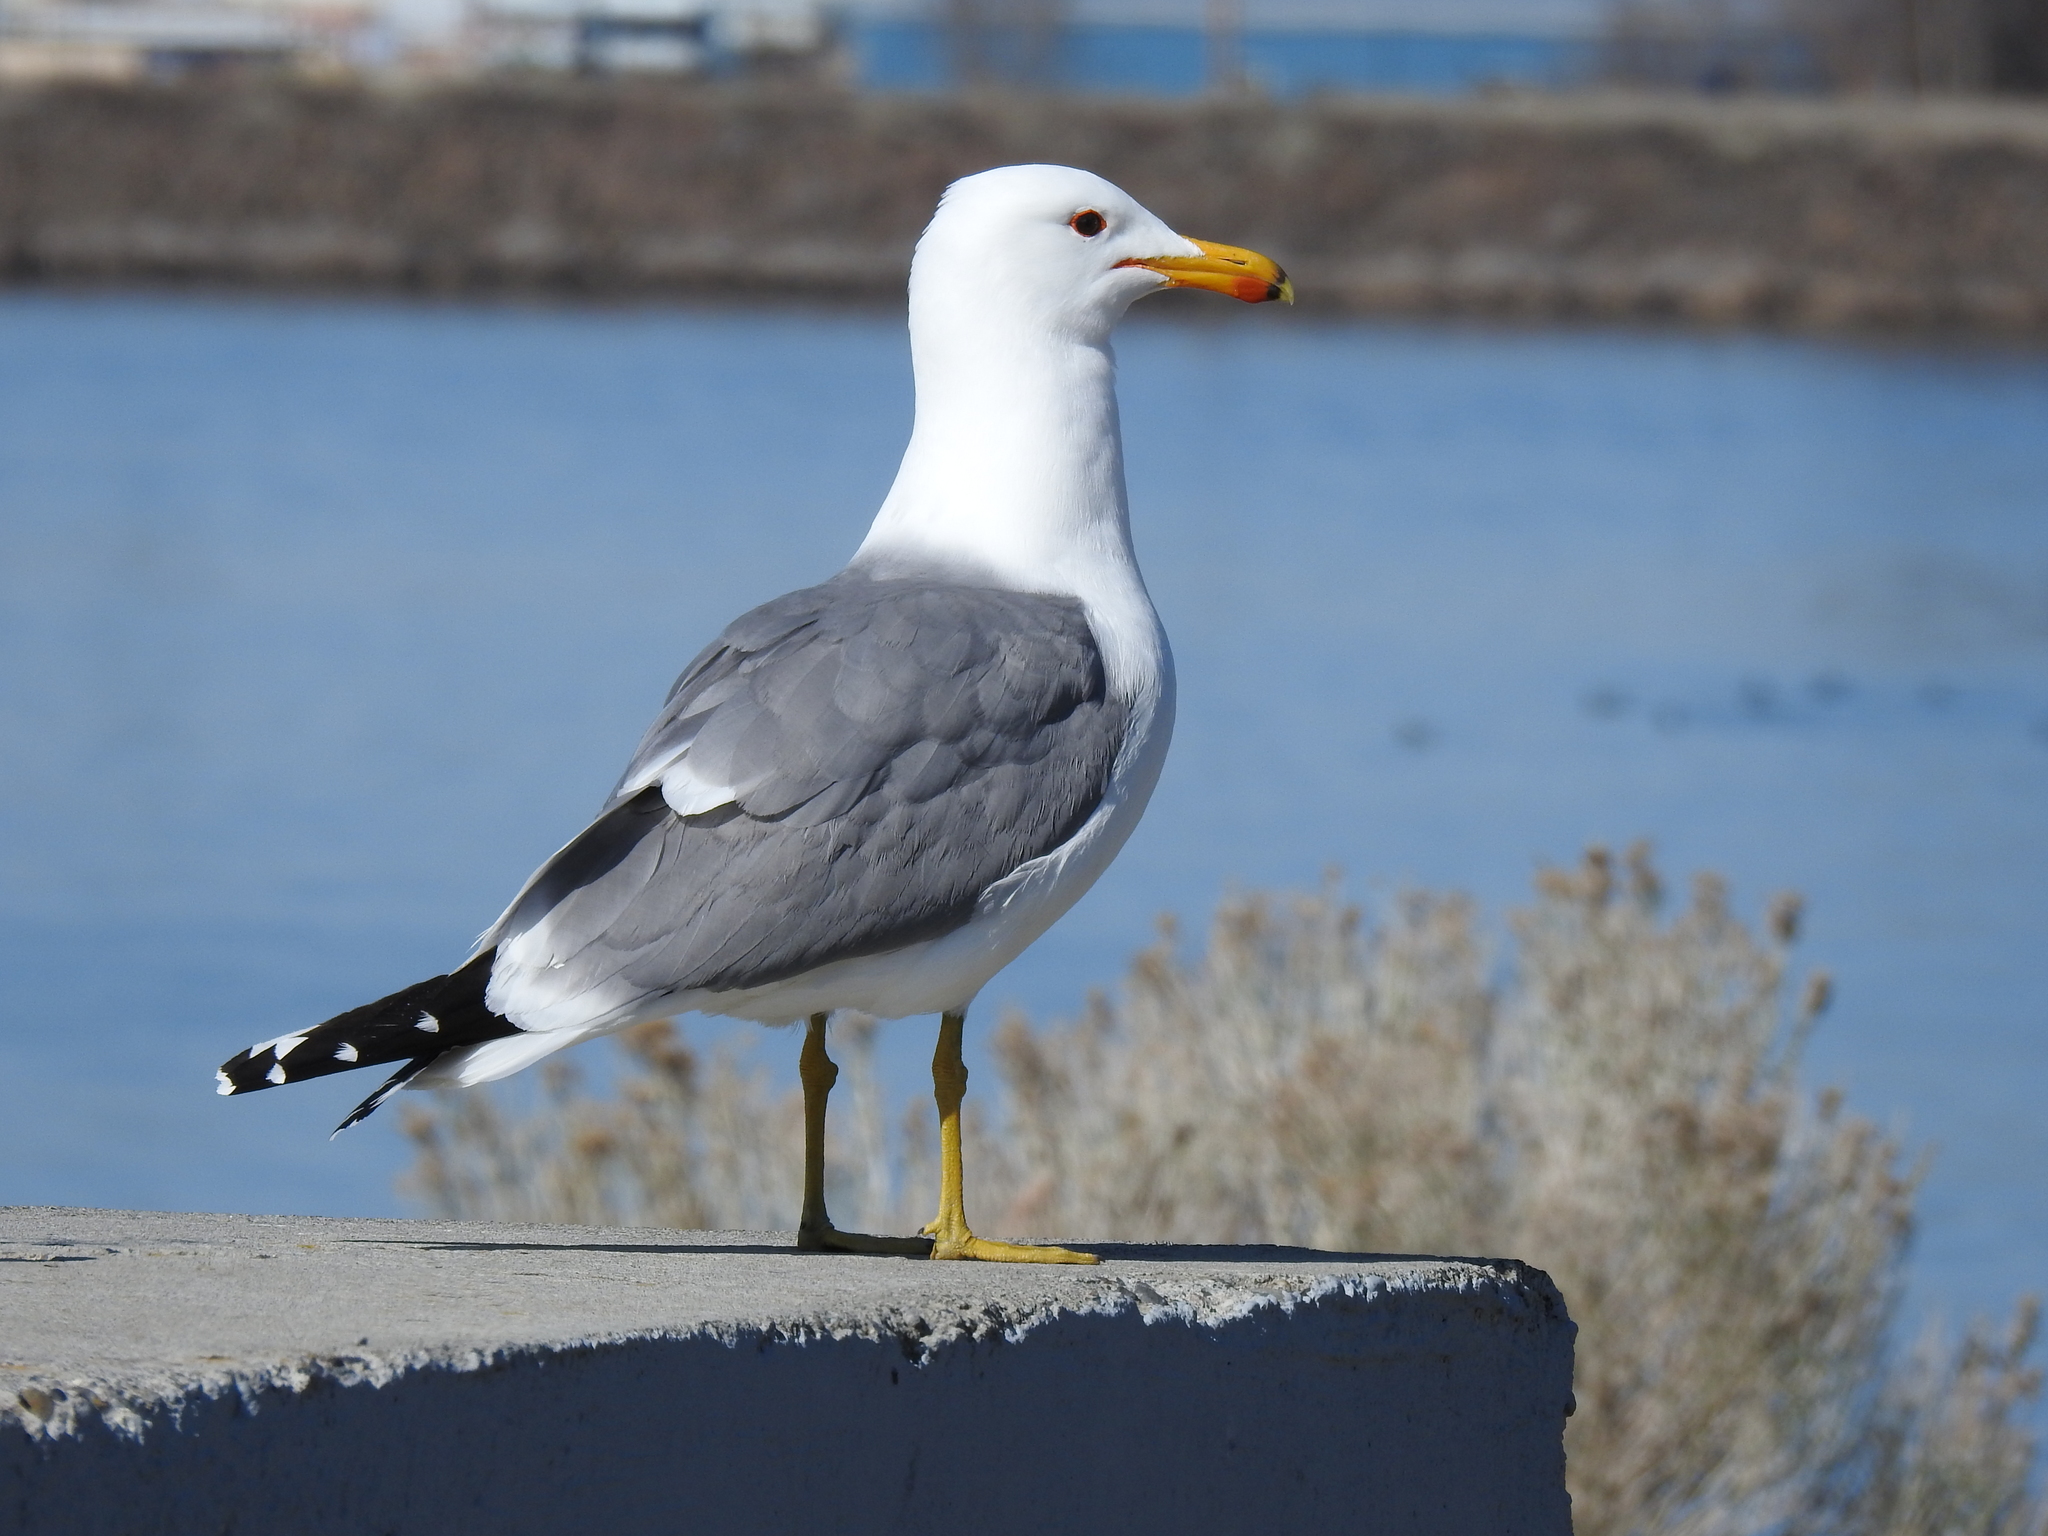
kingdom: Animalia
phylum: Chordata
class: Aves
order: Charadriiformes
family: Laridae
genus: Larus
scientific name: Larus californicus
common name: California gull
